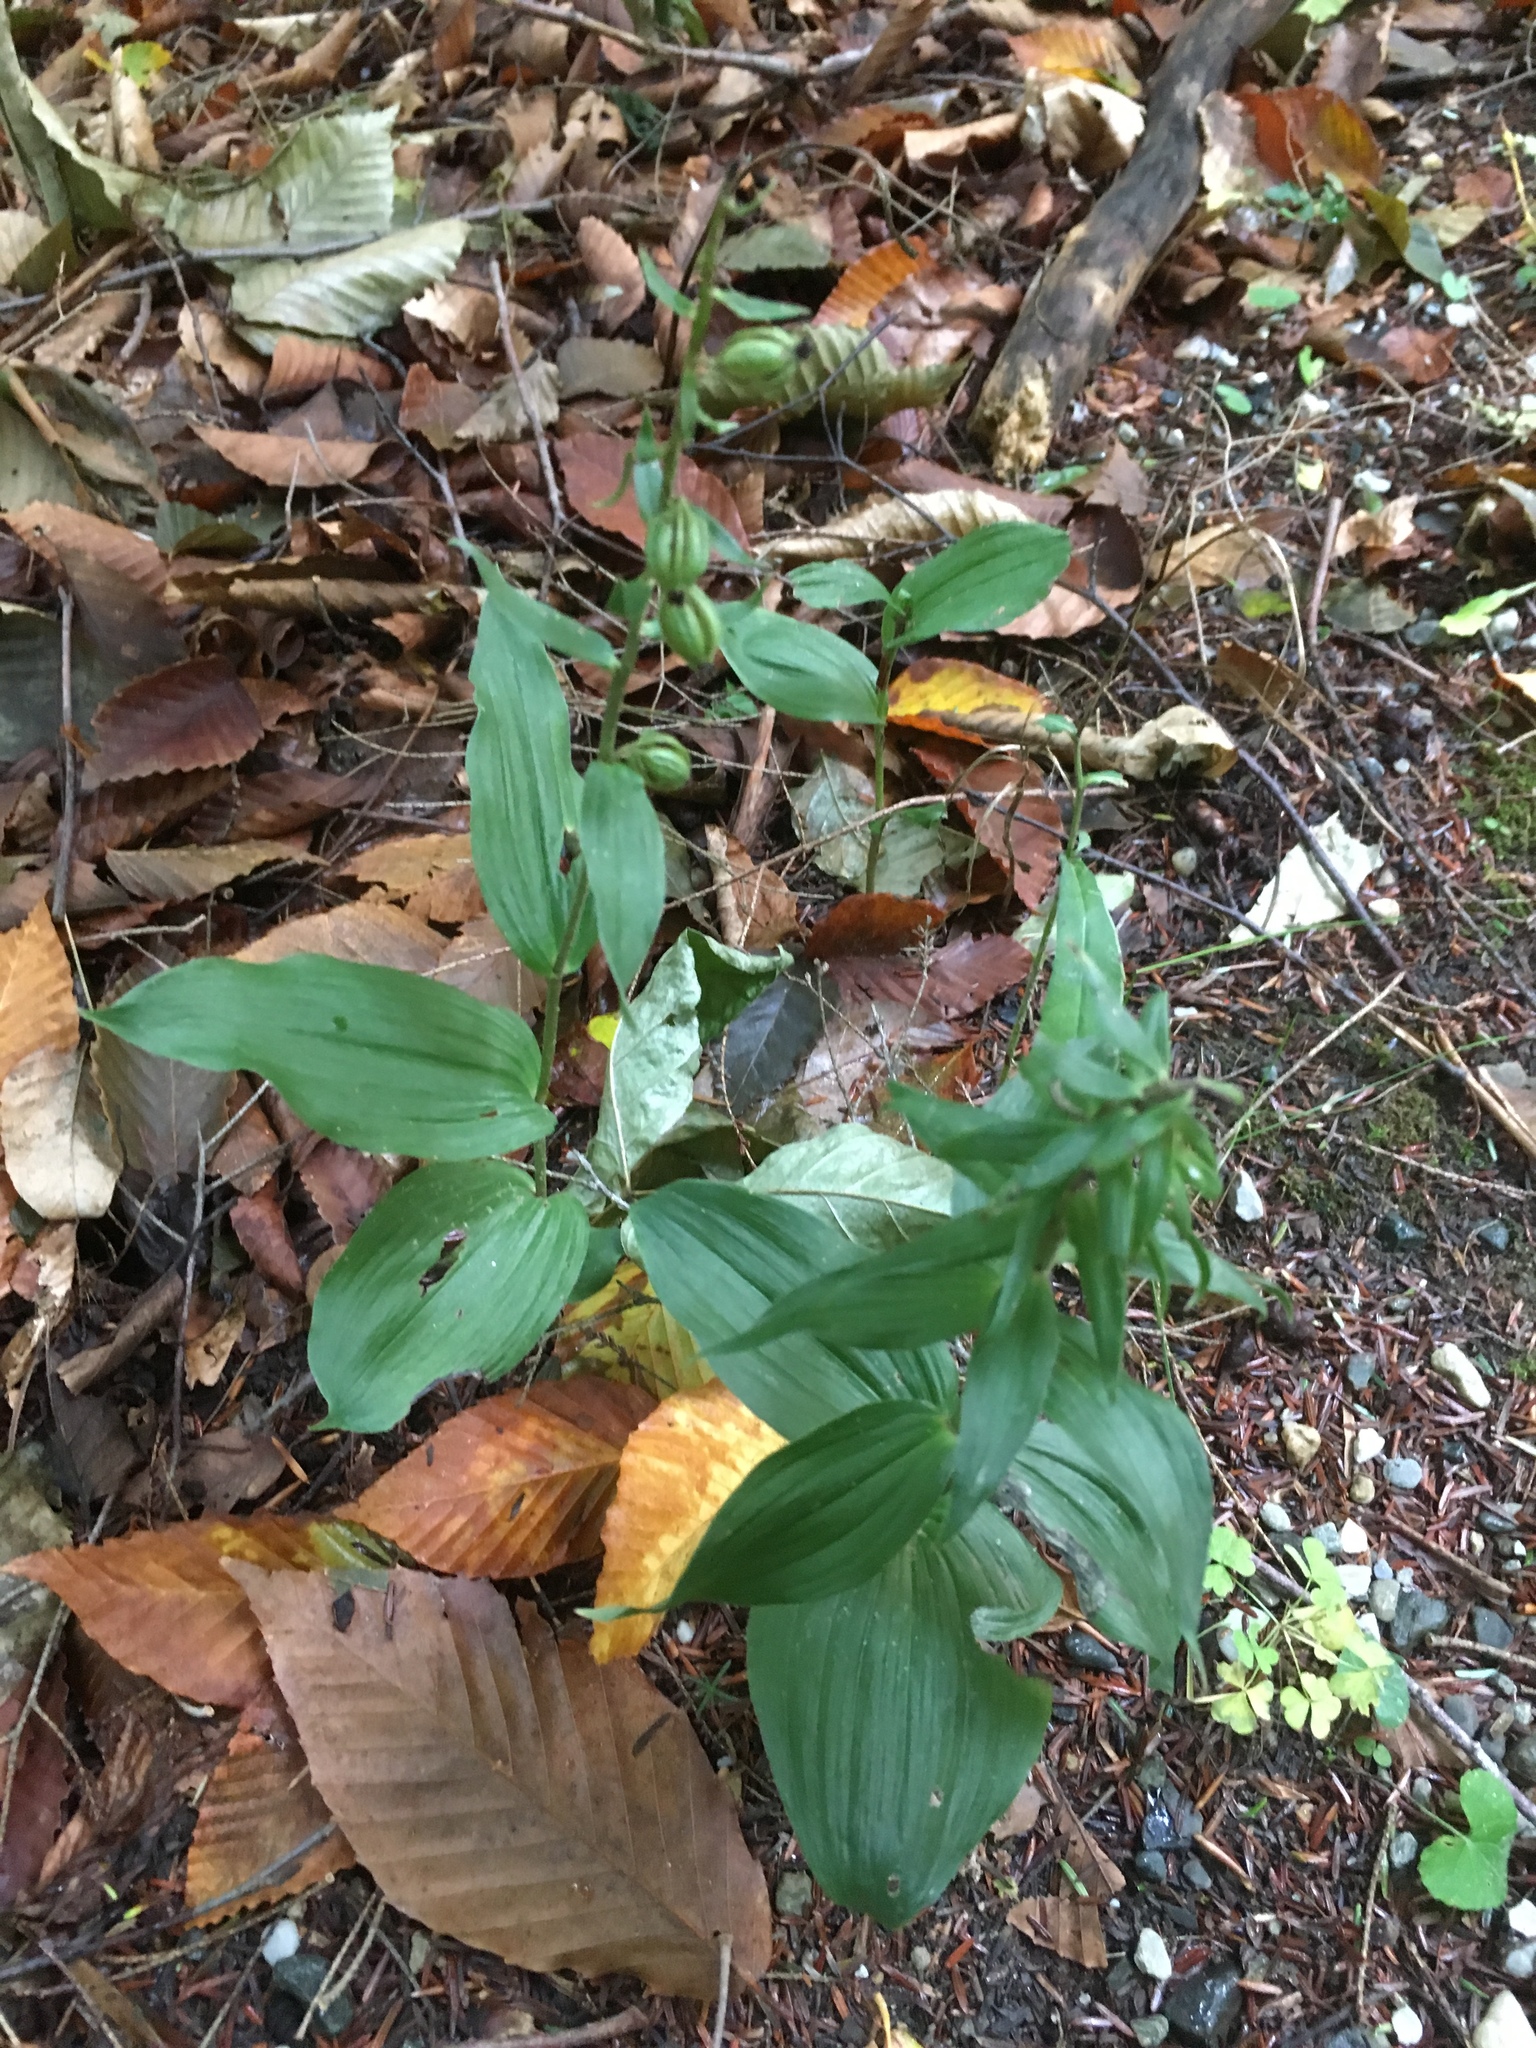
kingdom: Plantae
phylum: Tracheophyta
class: Liliopsida
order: Asparagales
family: Orchidaceae
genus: Epipactis
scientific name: Epipactis helleborine
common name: Broad-leaved helleborine
